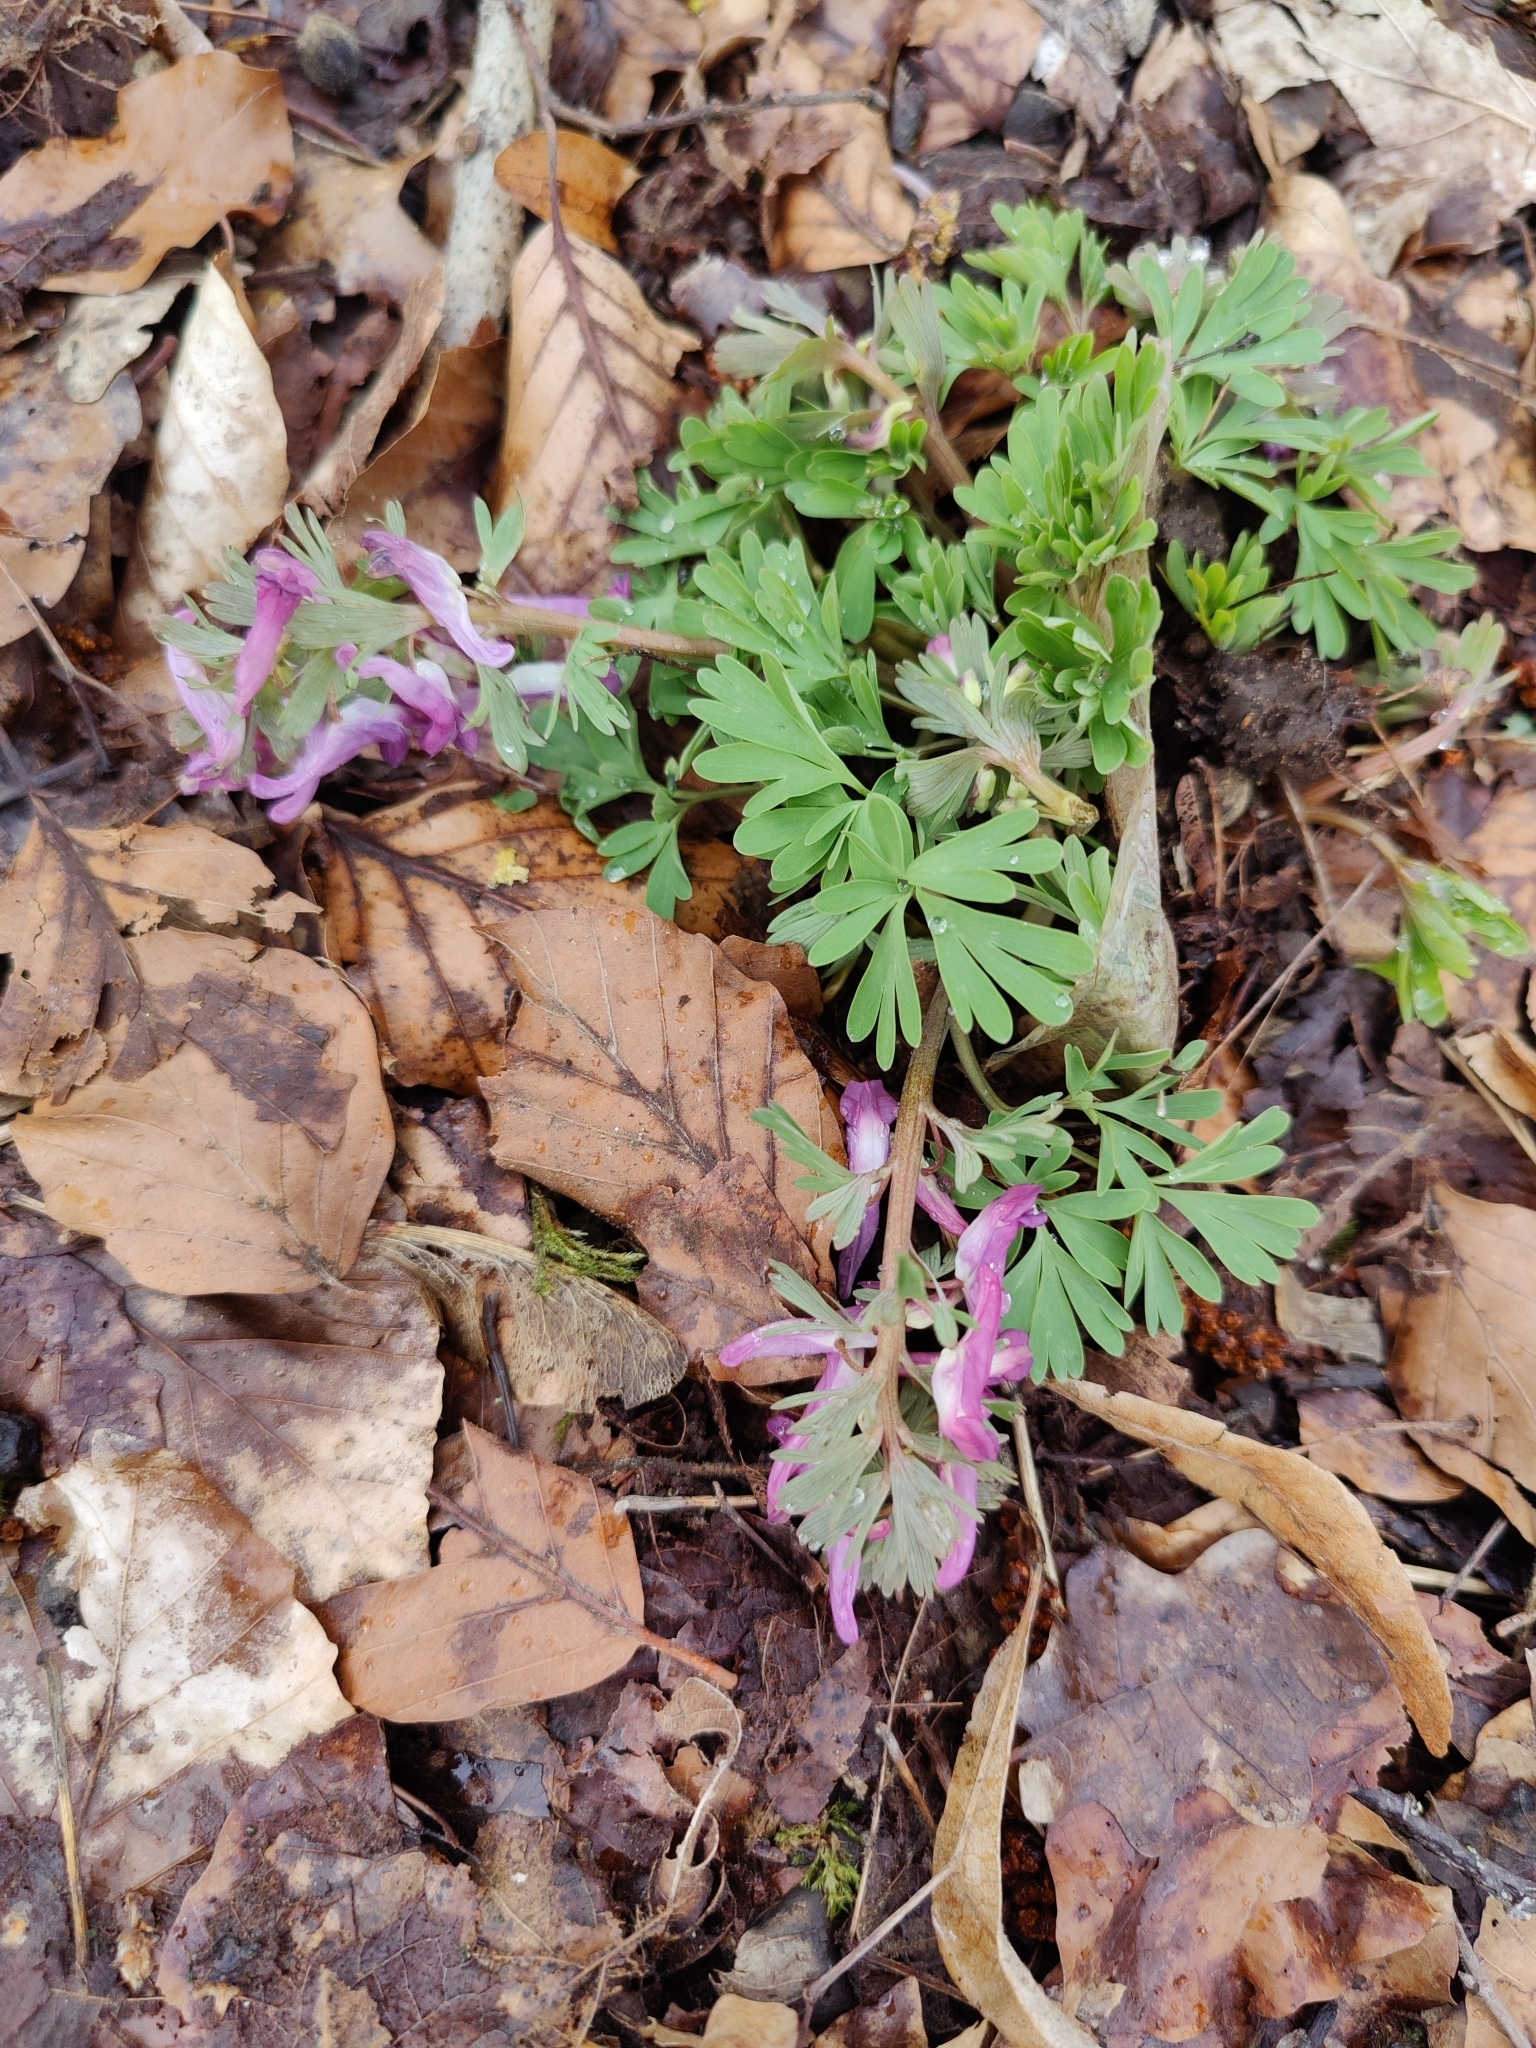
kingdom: Plantae
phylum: Tracheophyta
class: Magnoliopsida
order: Ranunculales
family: Papaveraceae
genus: Corydalis
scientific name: Corydalis solida
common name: Bird-in-a-bush
